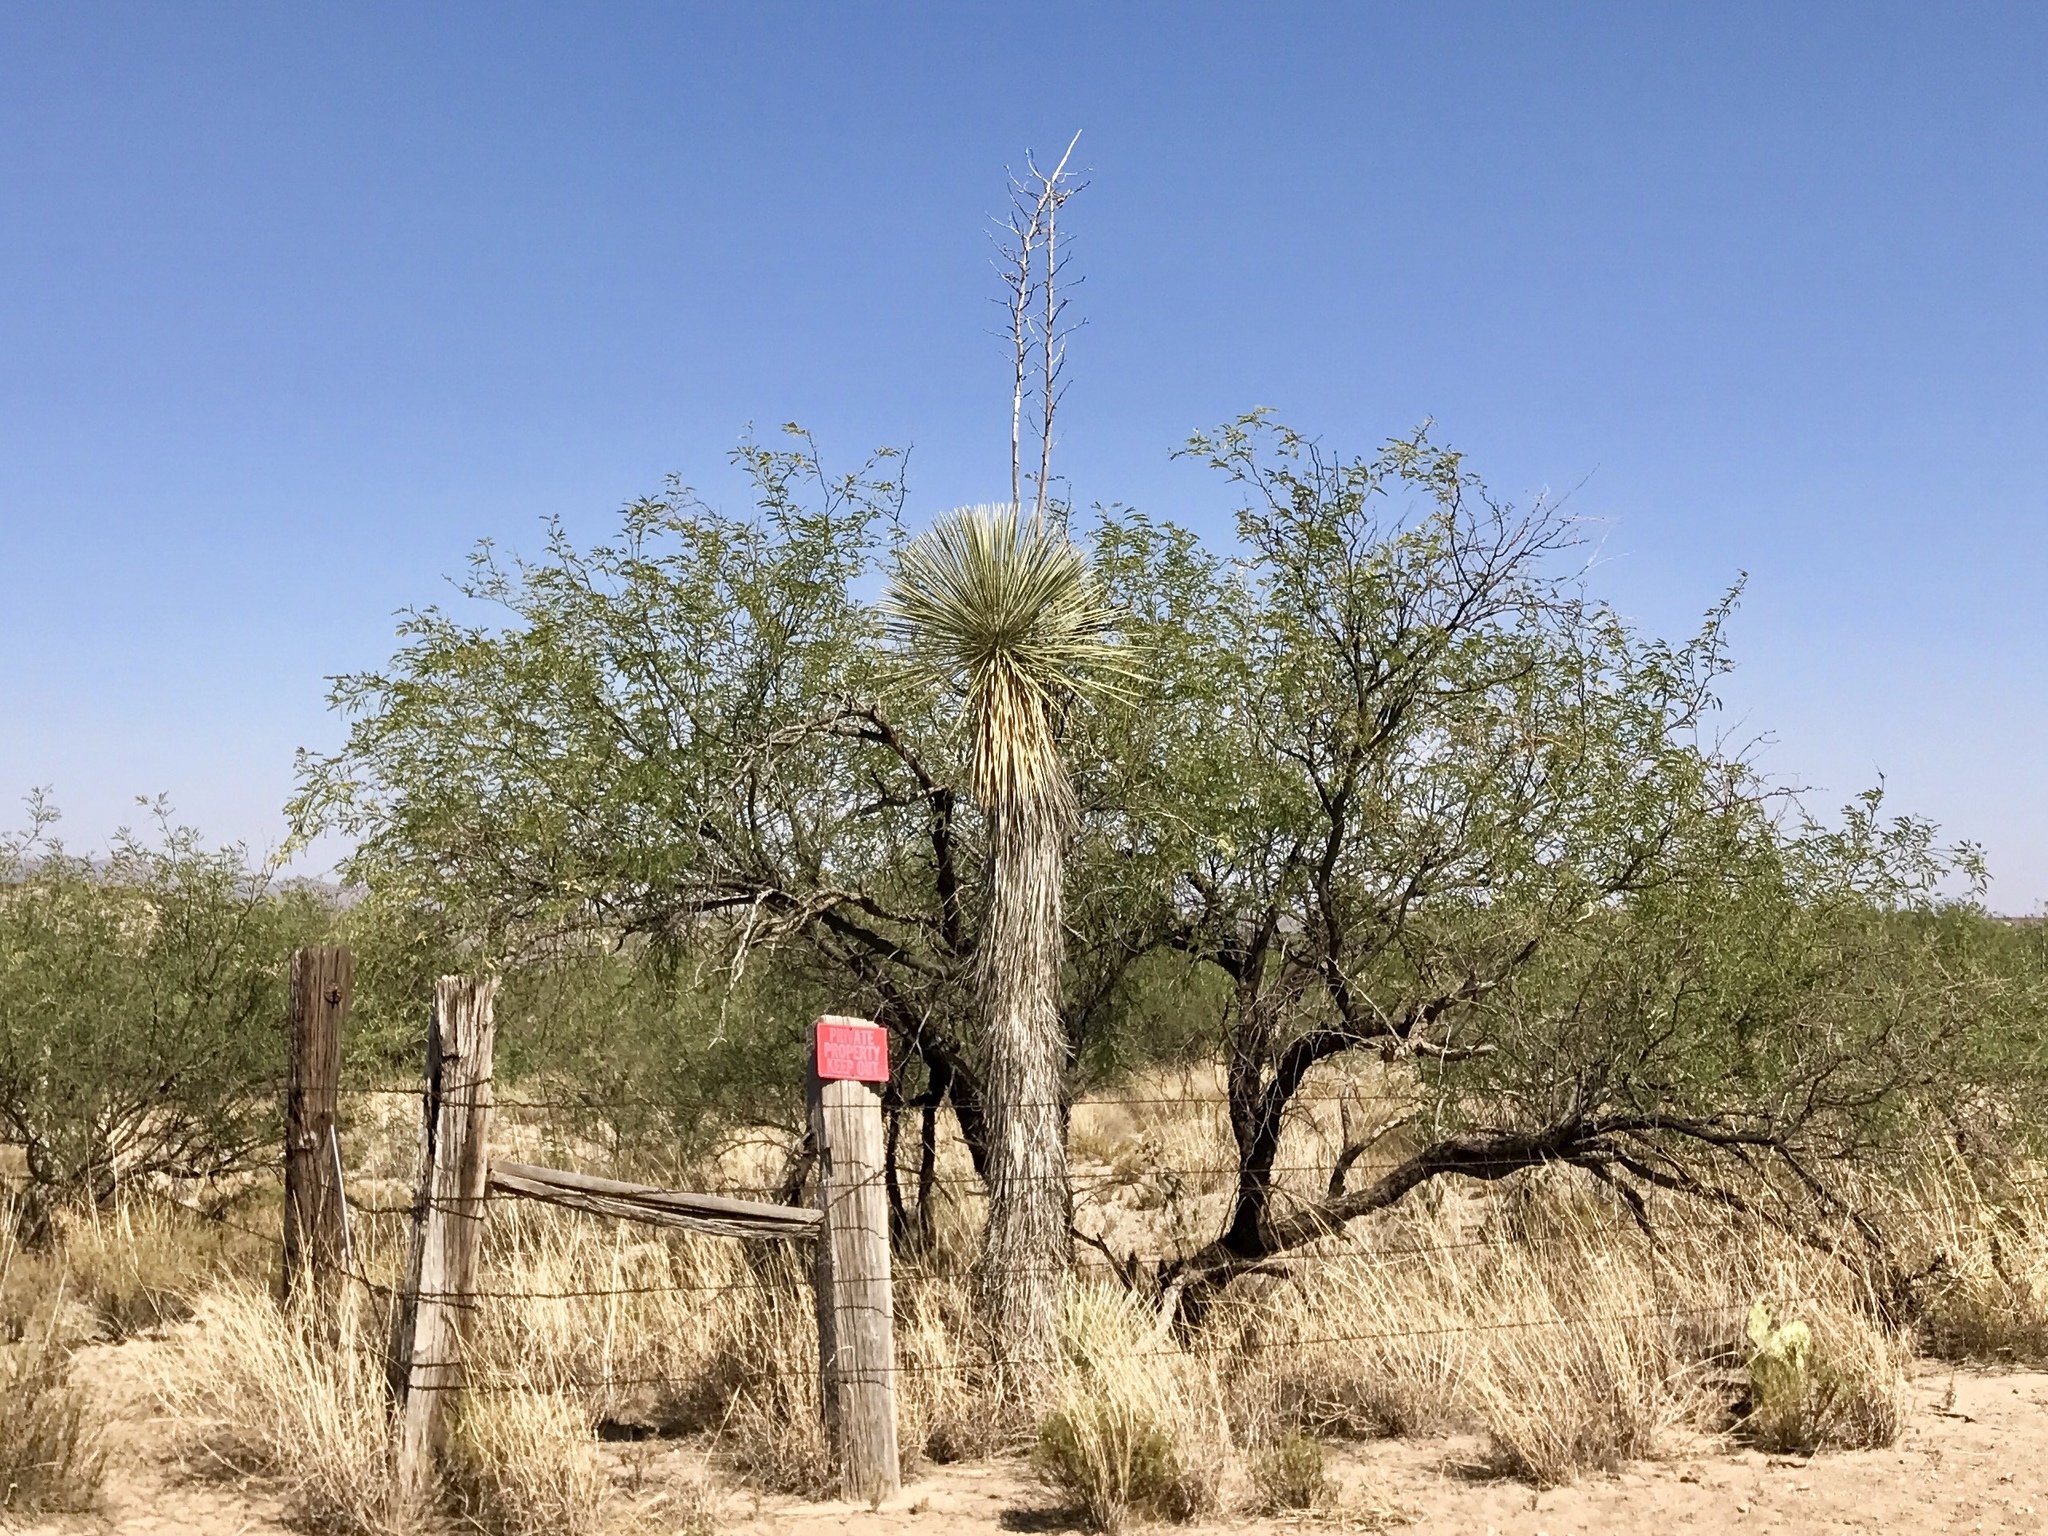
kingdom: Plantae
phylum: Tracheophyta
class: Liliopsida
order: Asparagales
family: Asparagaceae
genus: Yucca
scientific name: Yucca elata
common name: Palmella
